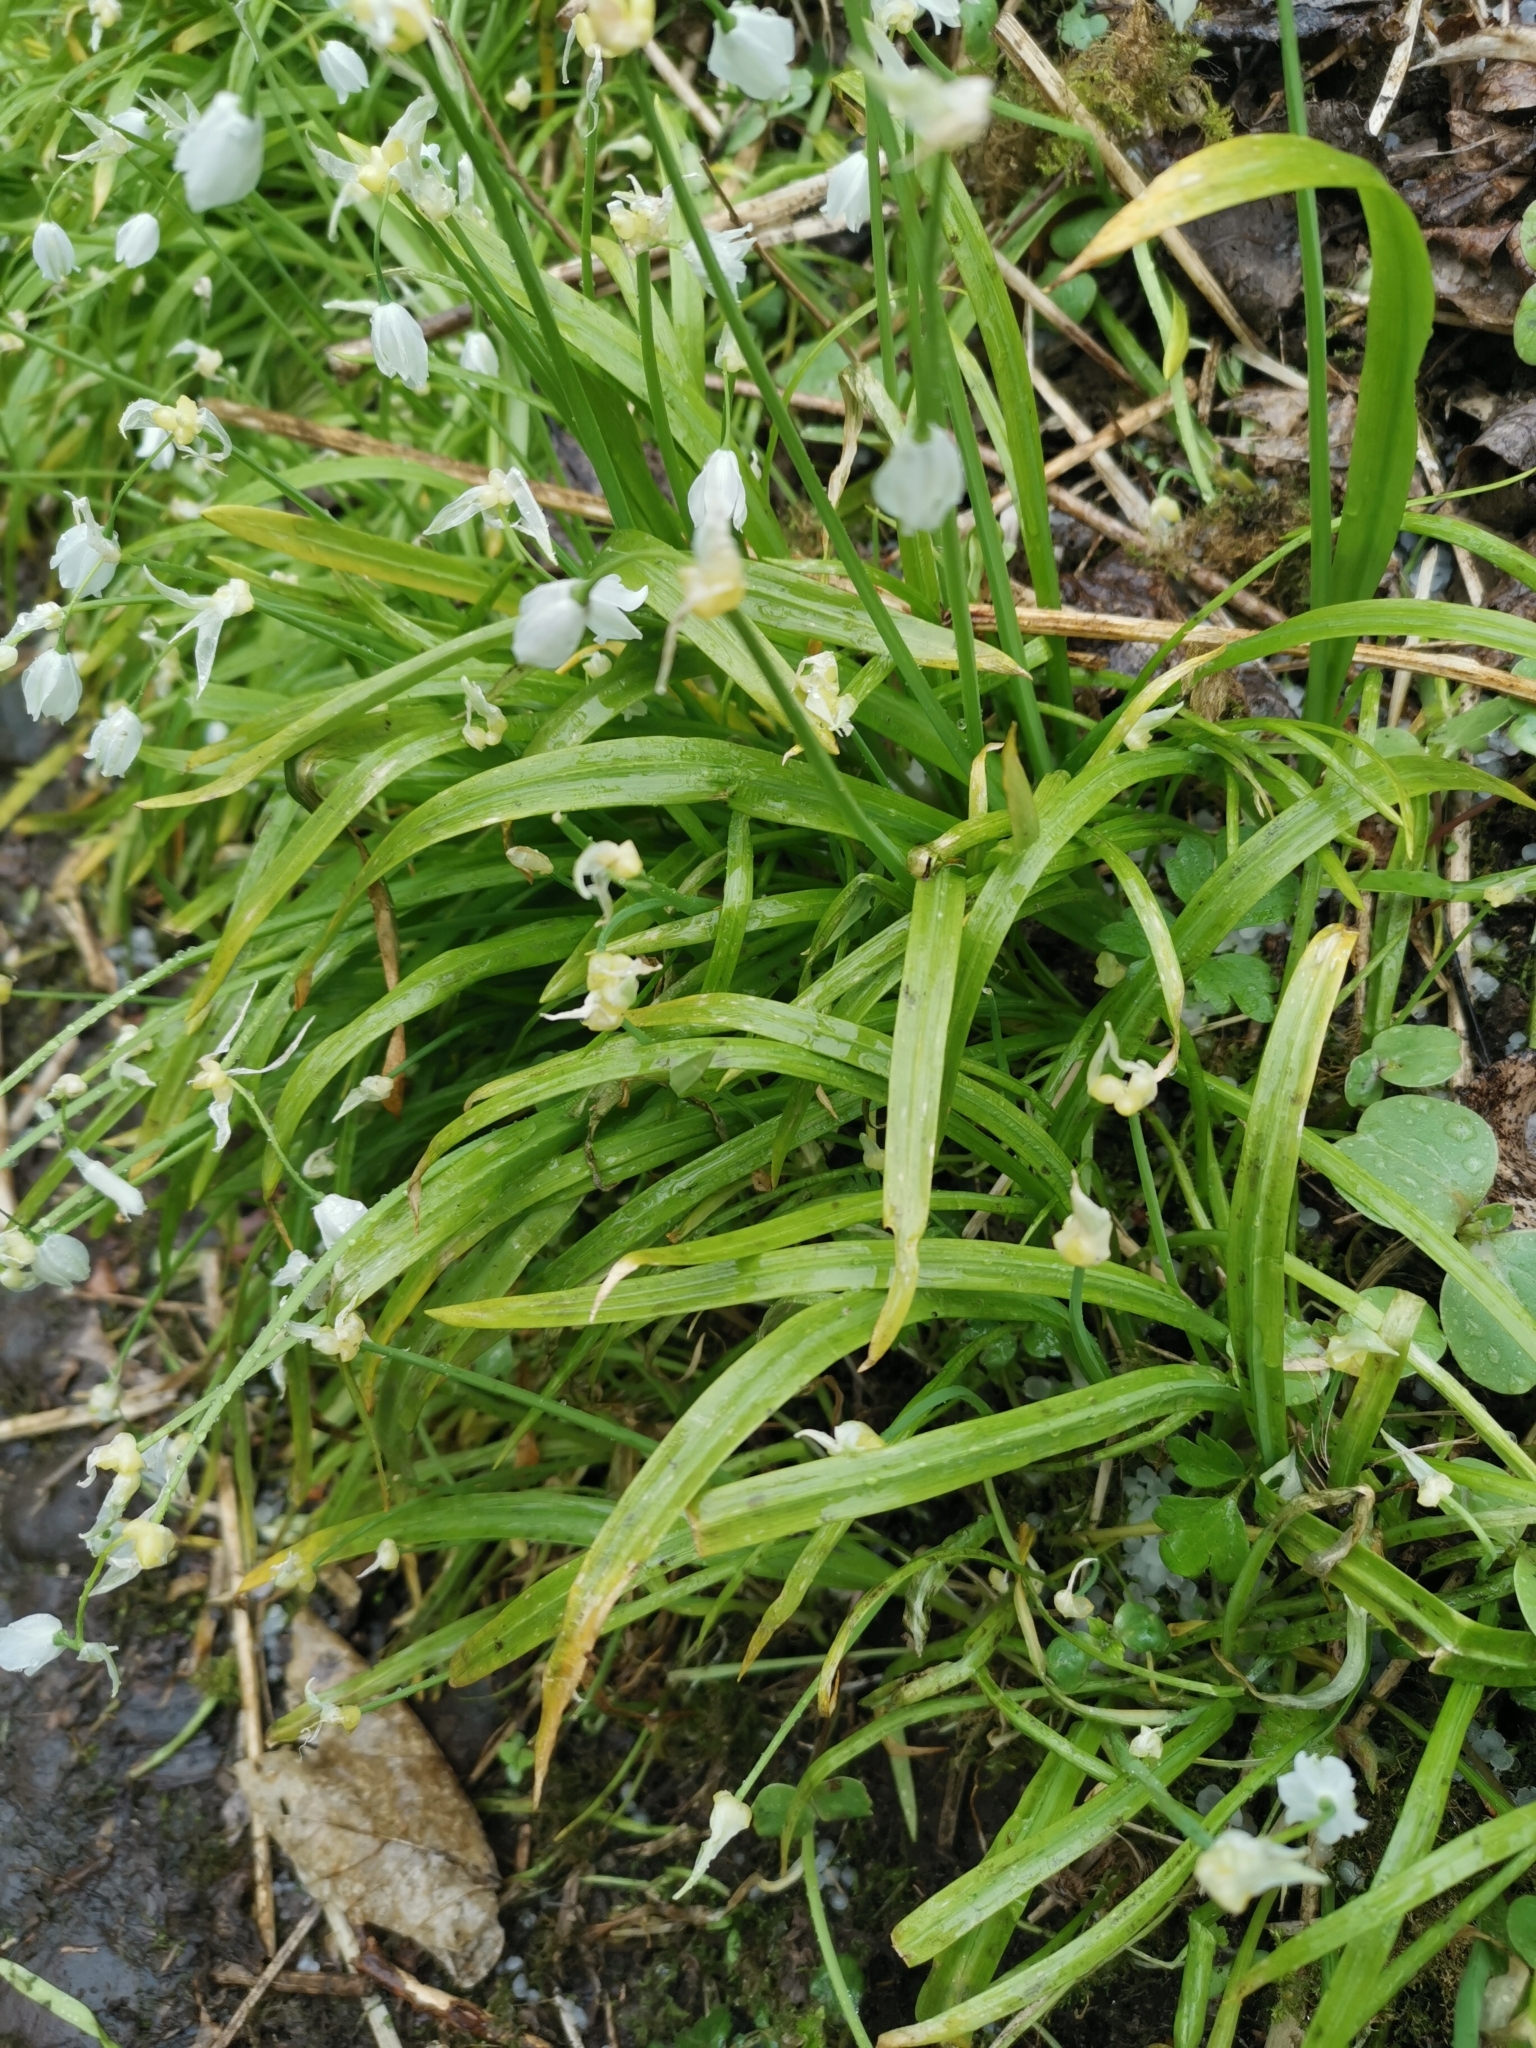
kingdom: Plantae
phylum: Tracheophyta
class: Liliopsida
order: Asparagales
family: Amaryllidaceae
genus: Allium
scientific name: Allium paradoxum
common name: Few-flowered garlic
